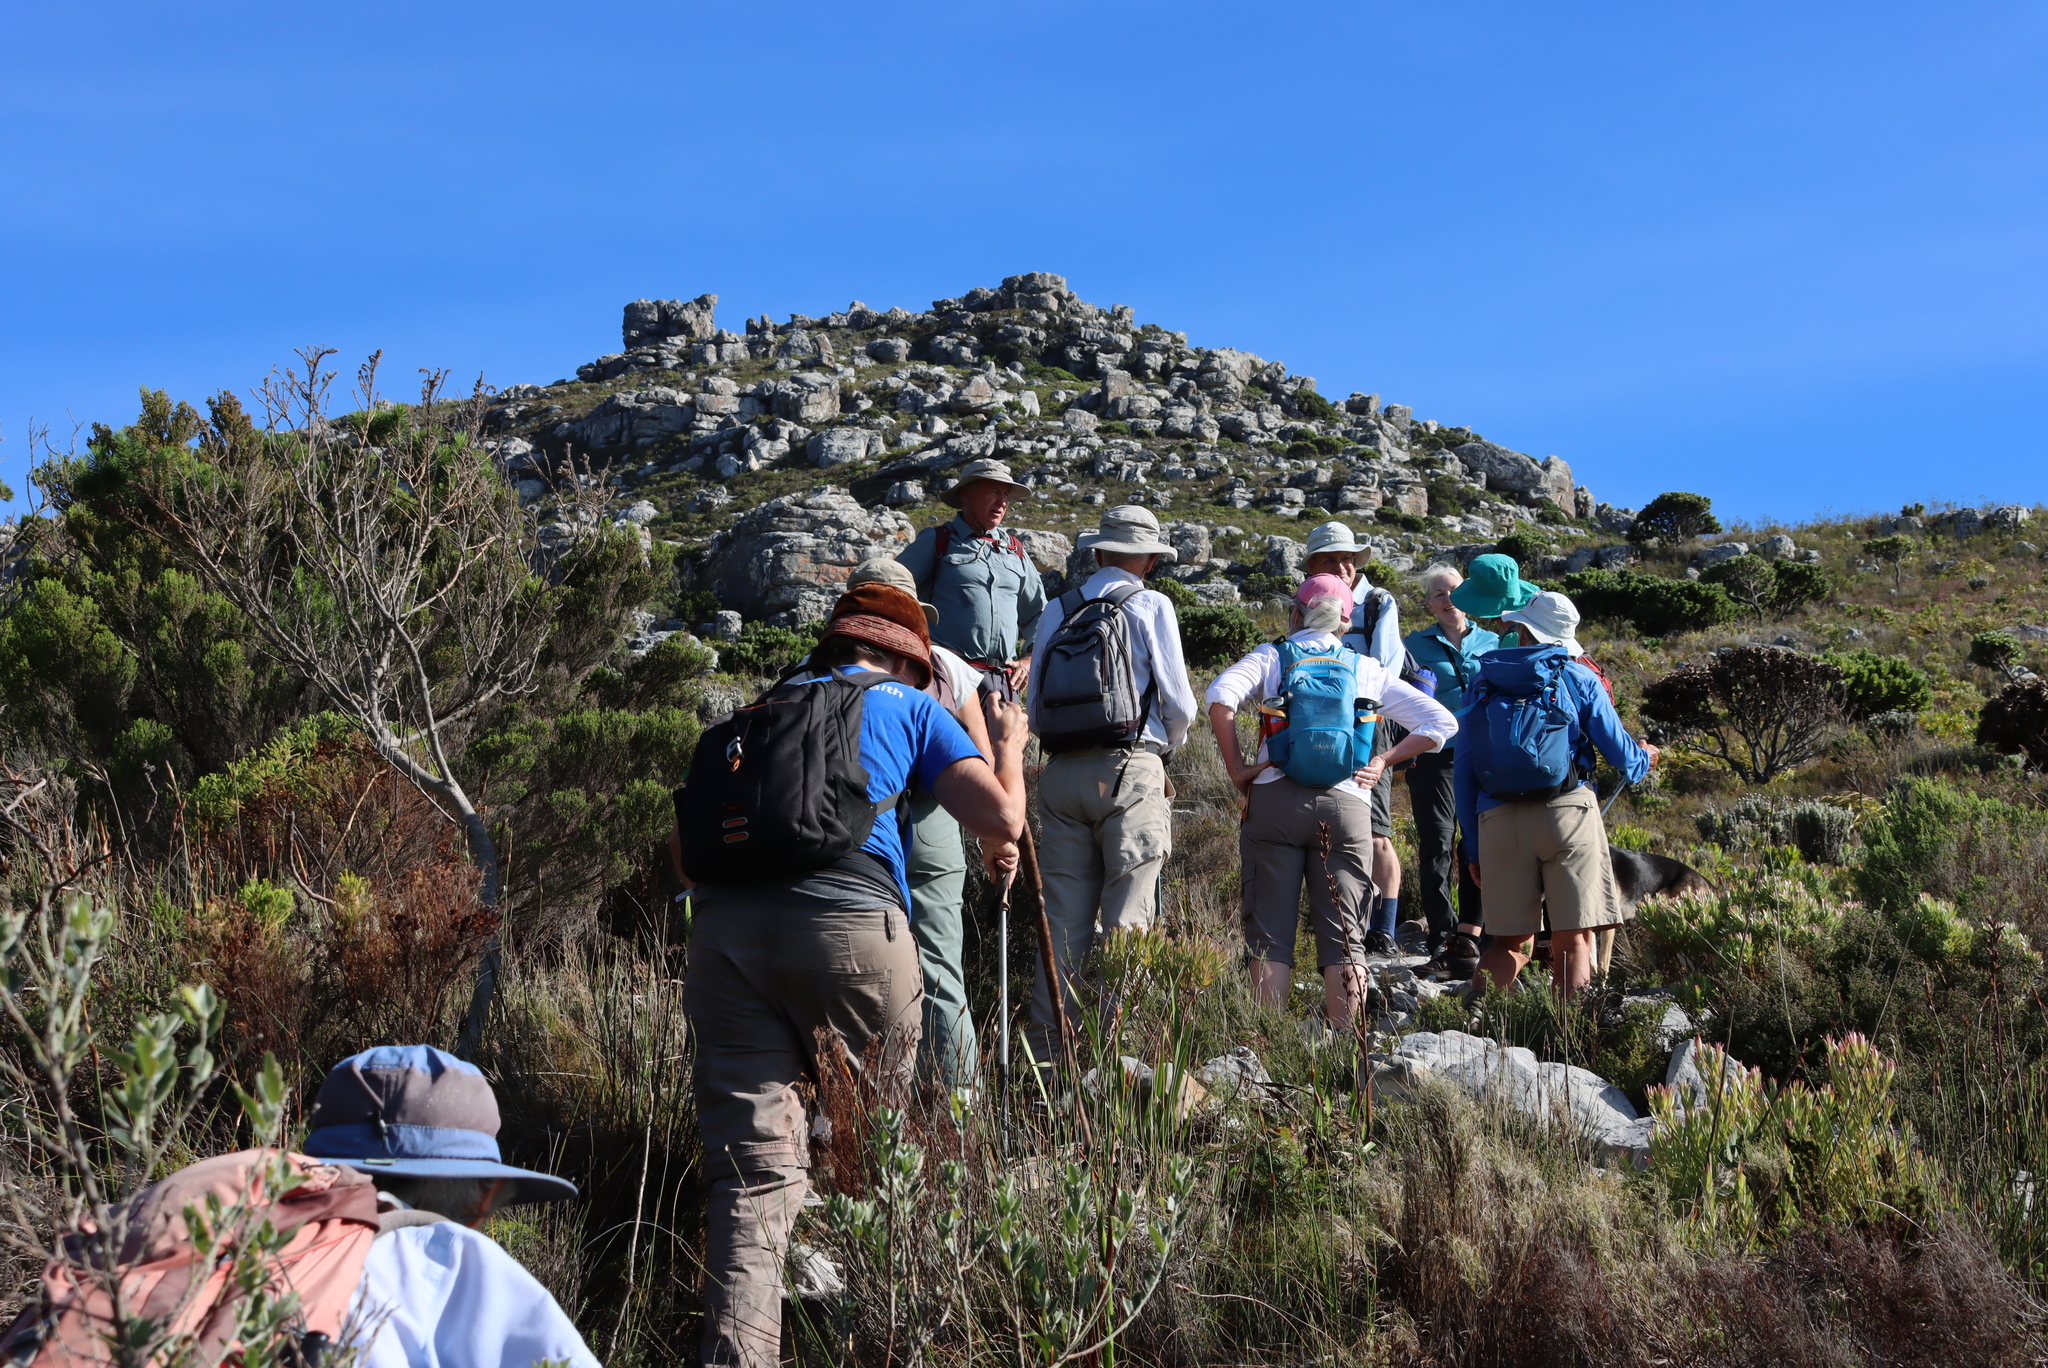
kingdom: Plantae
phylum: Tracheophyta
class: Magnoliopsida
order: Proteales
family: Proteaceae
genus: Leucadendron
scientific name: Leucadendron xanthoconus
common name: Sickle-leaf conebush
